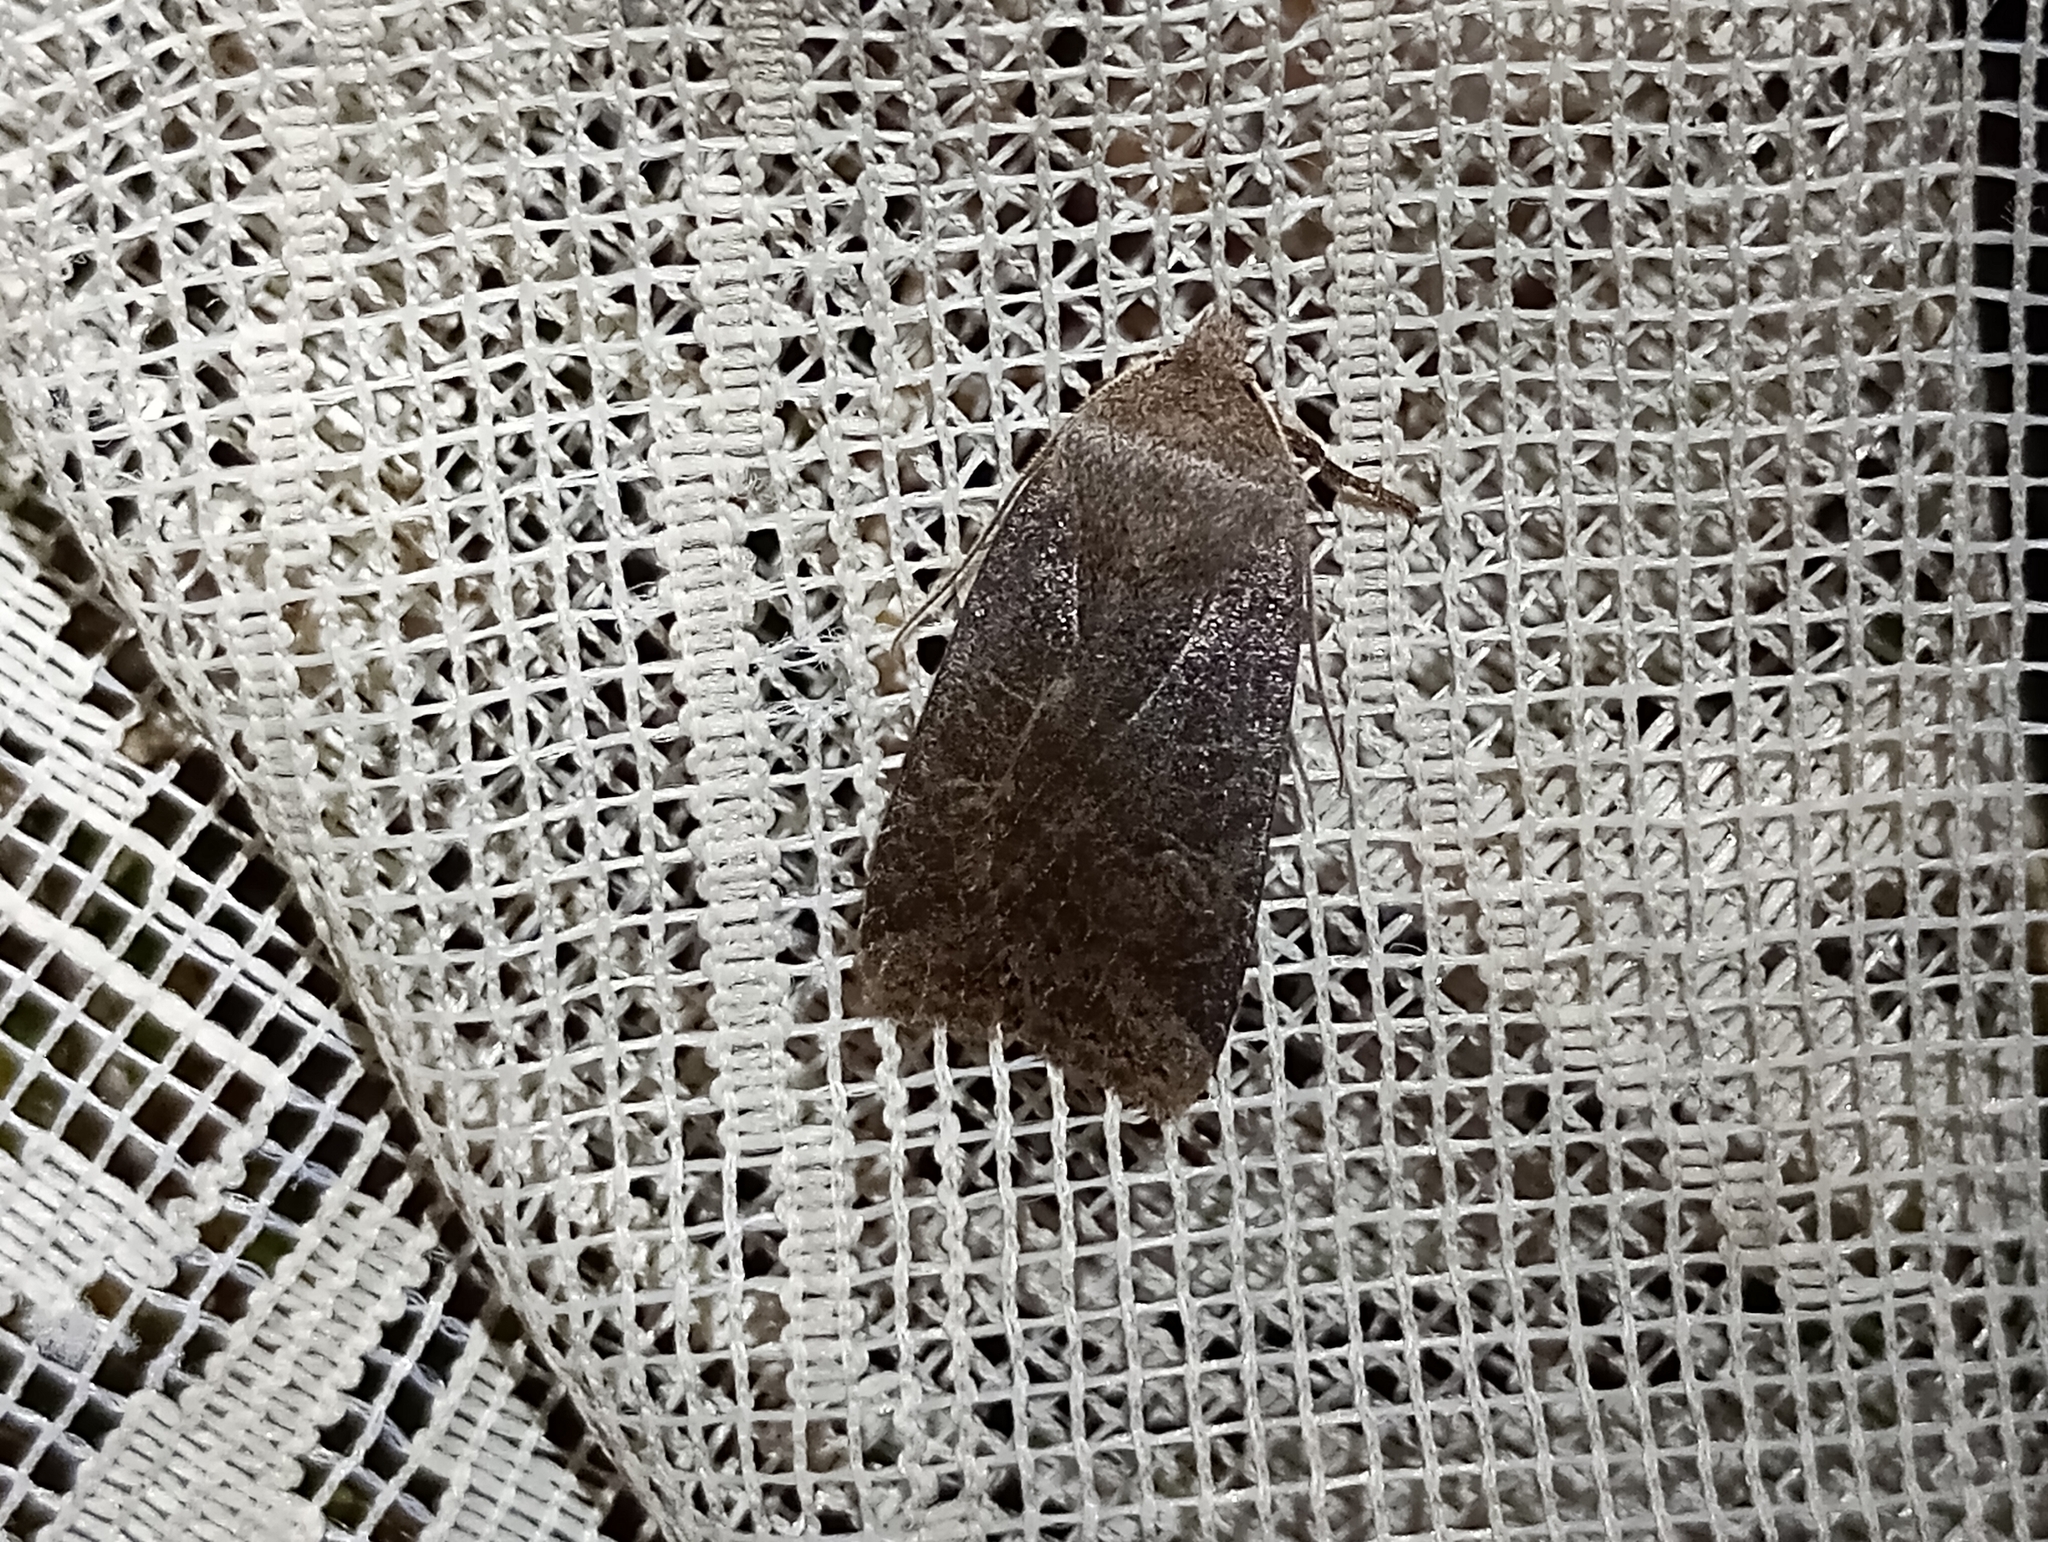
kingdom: Animalia
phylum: Arthropoda
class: Insecta
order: Lepidoptera
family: Noctuidae
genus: Conistra
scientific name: Conistra vaccinii
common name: Chestnut
